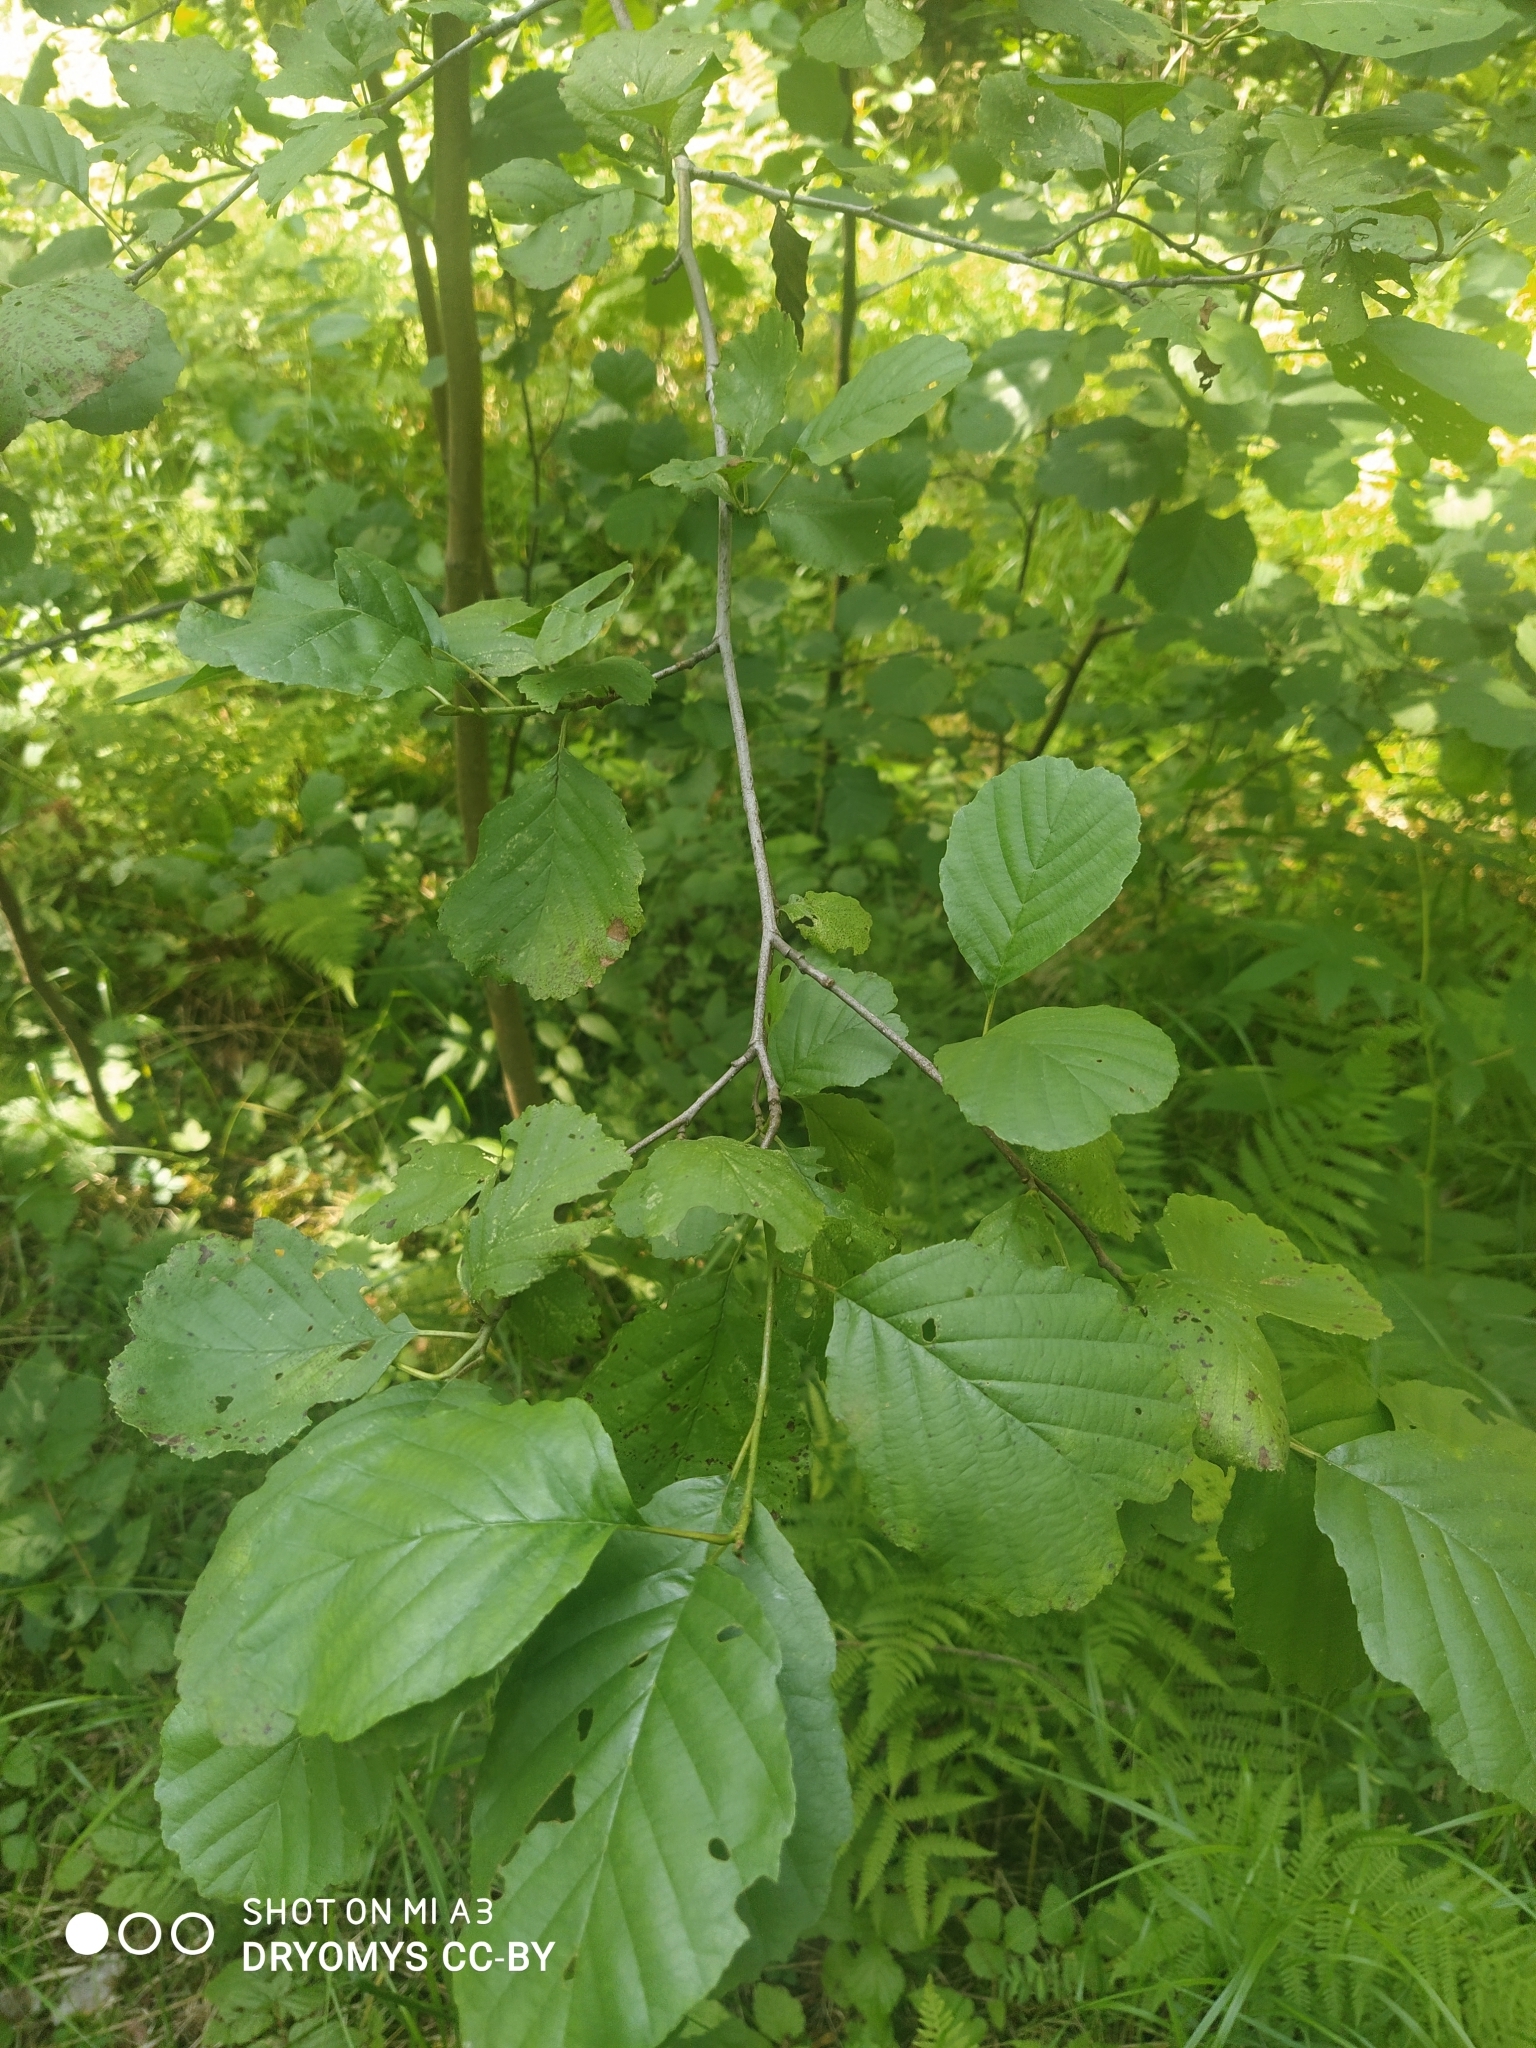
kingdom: Plantae
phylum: Tracheophyta
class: Magnoliopsida
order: Fagales
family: Betulaceae
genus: Alnus
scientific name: Alnus glutinosa
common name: Black alder
